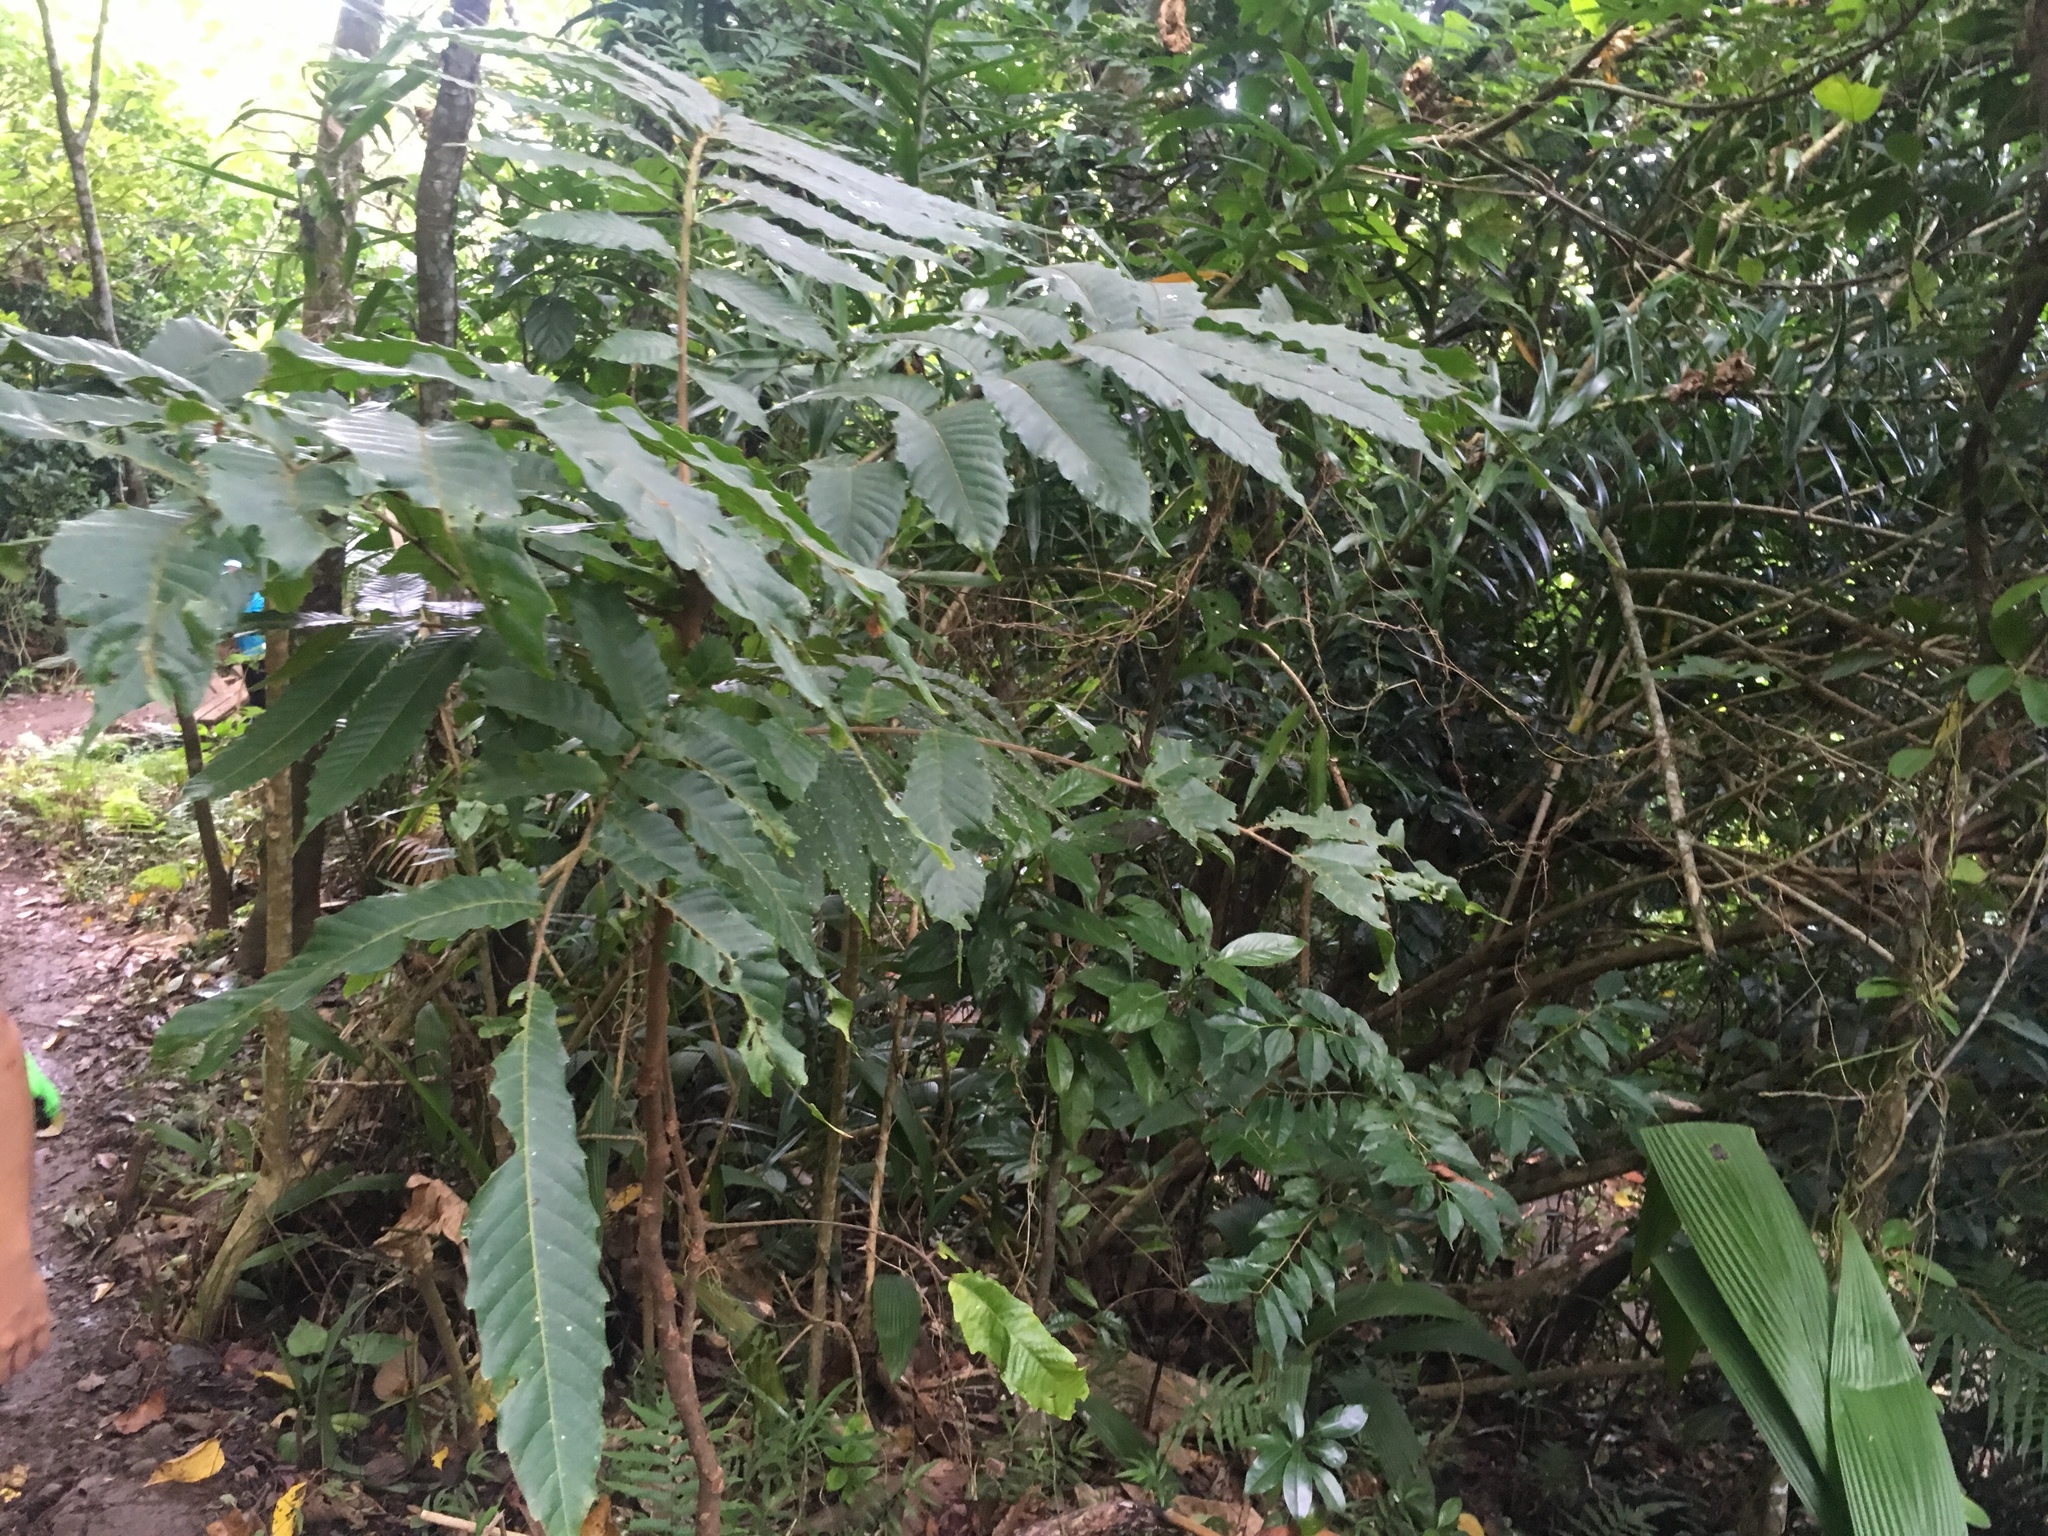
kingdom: Plantae
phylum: Tracheophyta
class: Magnoliopsida
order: Sapindales
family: Sapindaceae
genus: Pometia
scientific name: Pometia pinnata
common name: Oceanic lychee
